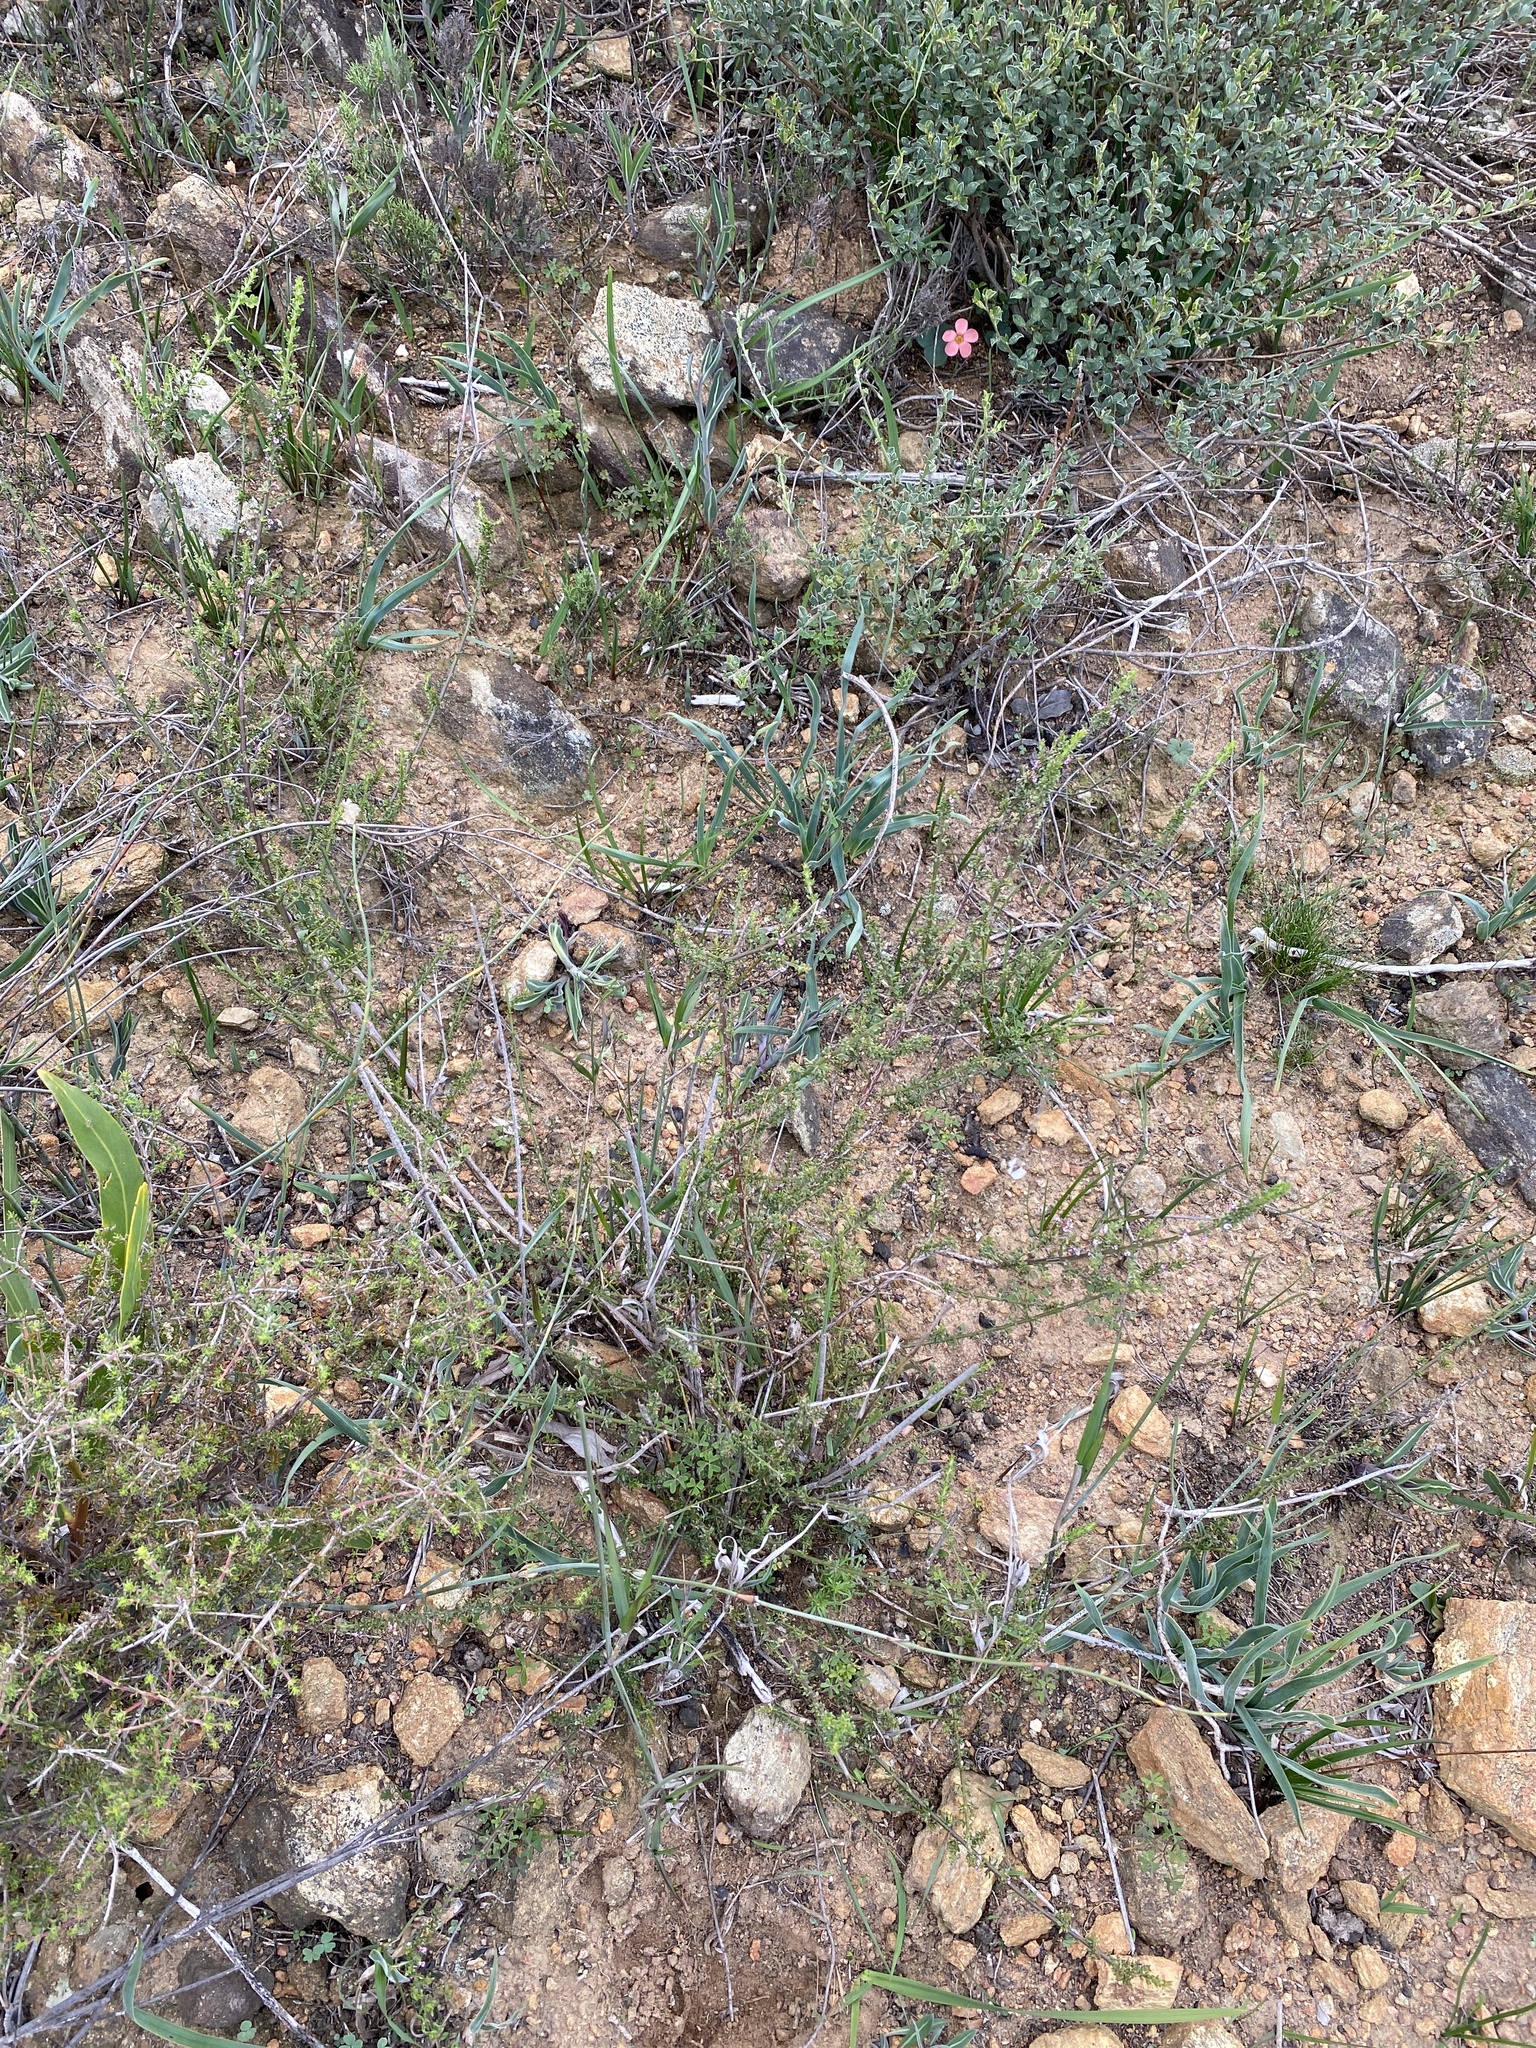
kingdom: Plantae
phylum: Tracheophyta
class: Magnoliopsida
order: Oxalidales
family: Oxalidaceae
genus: Oxalis
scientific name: Oxalis eckloniana
